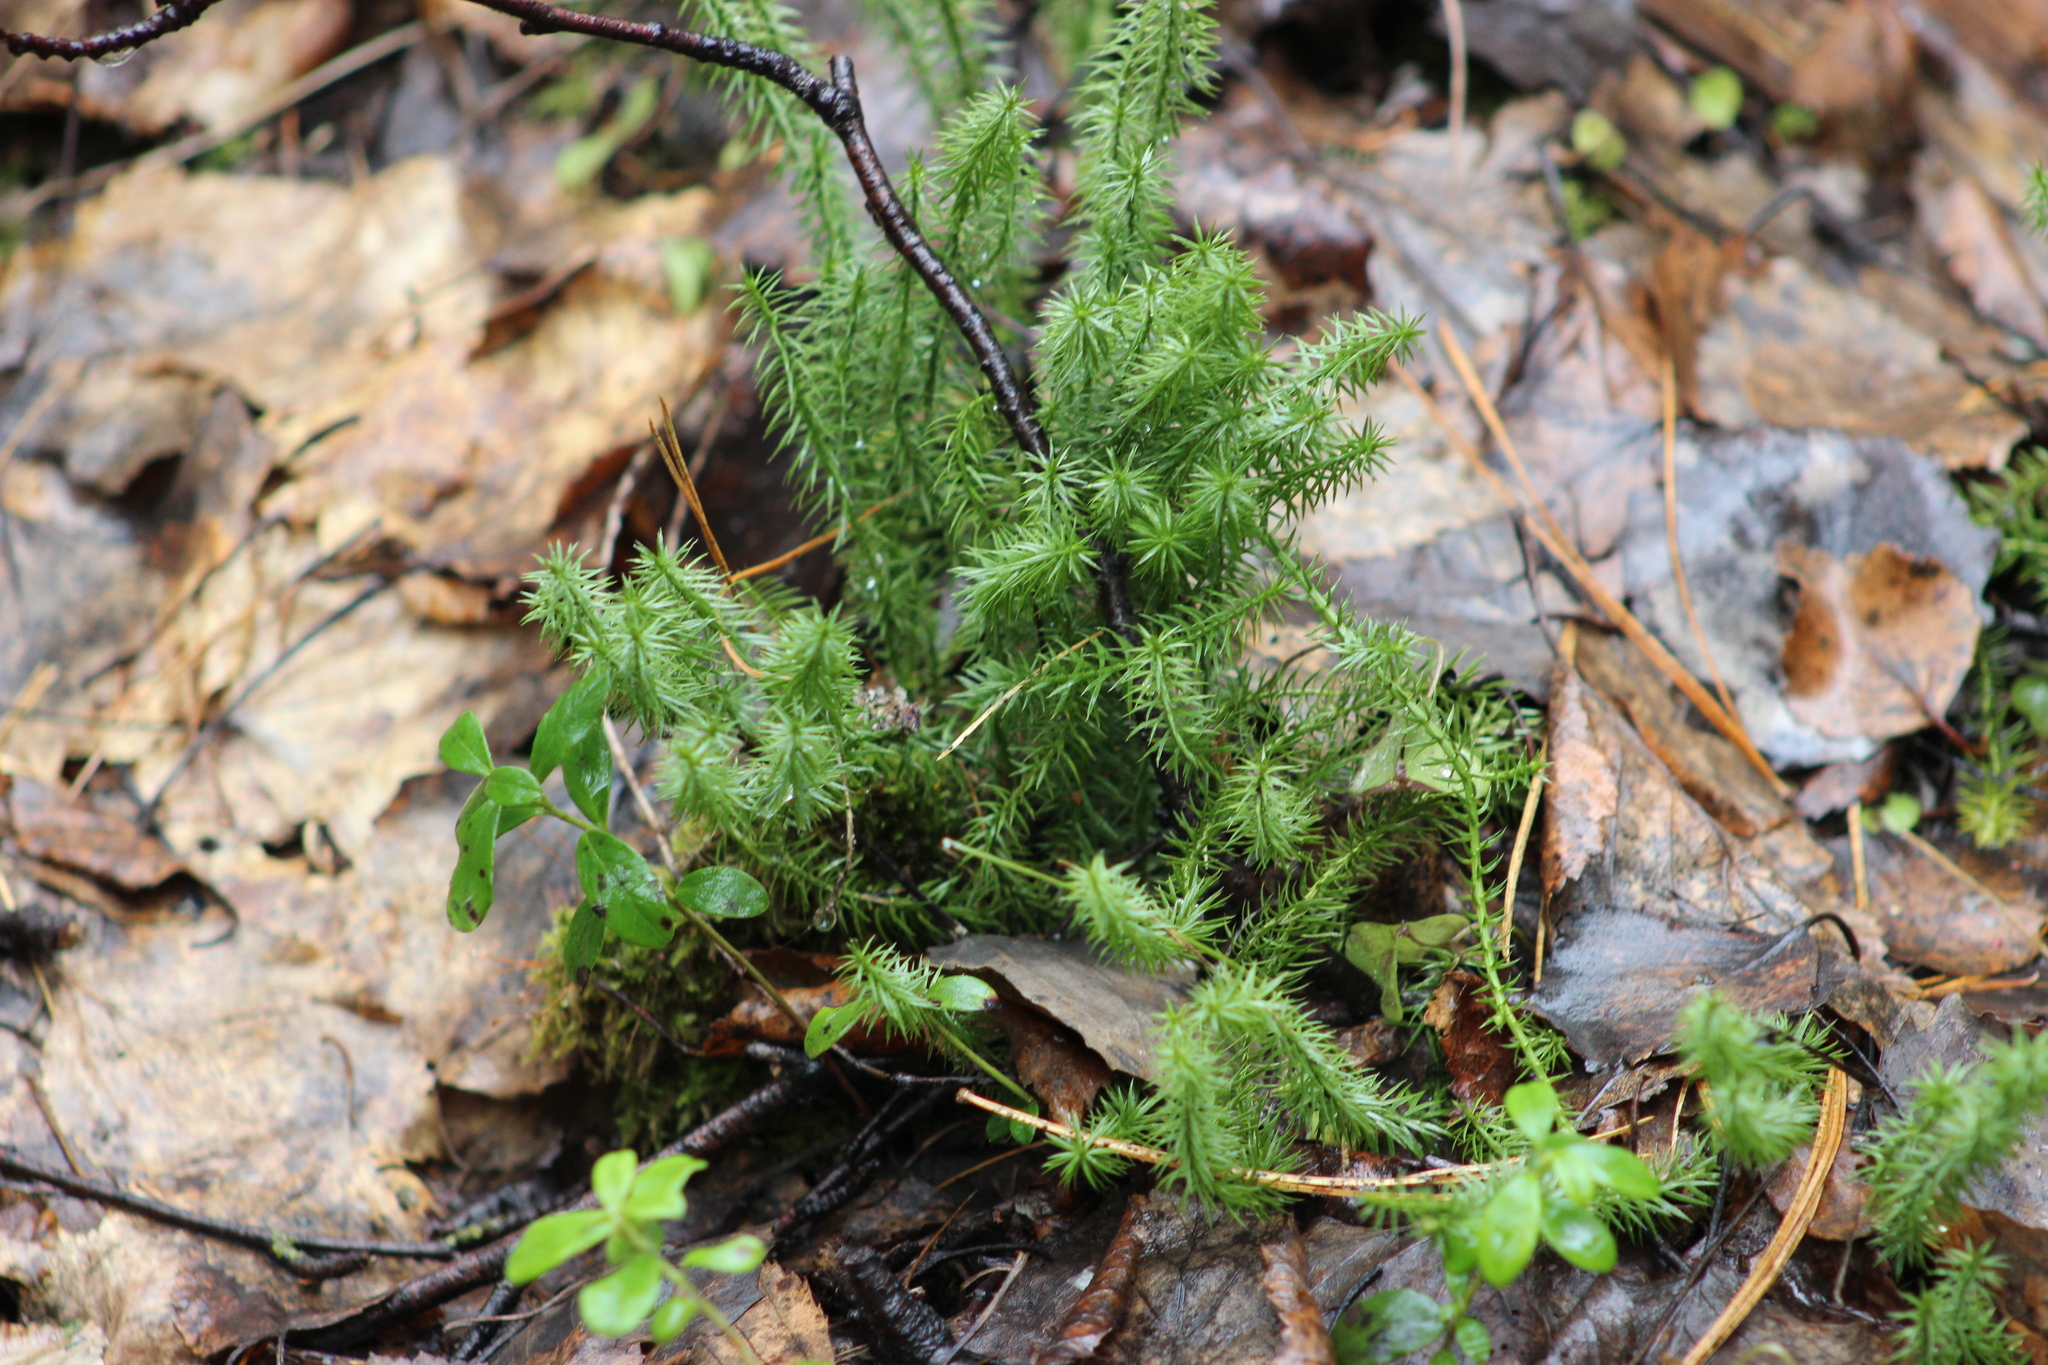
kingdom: Plantae
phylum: Tracheophyta
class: Lycopodiopsida
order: Lycopodiales
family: Lycopodiaceae
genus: Spinulum
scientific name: Spinulum annotinum
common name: Interrupted club-moss
